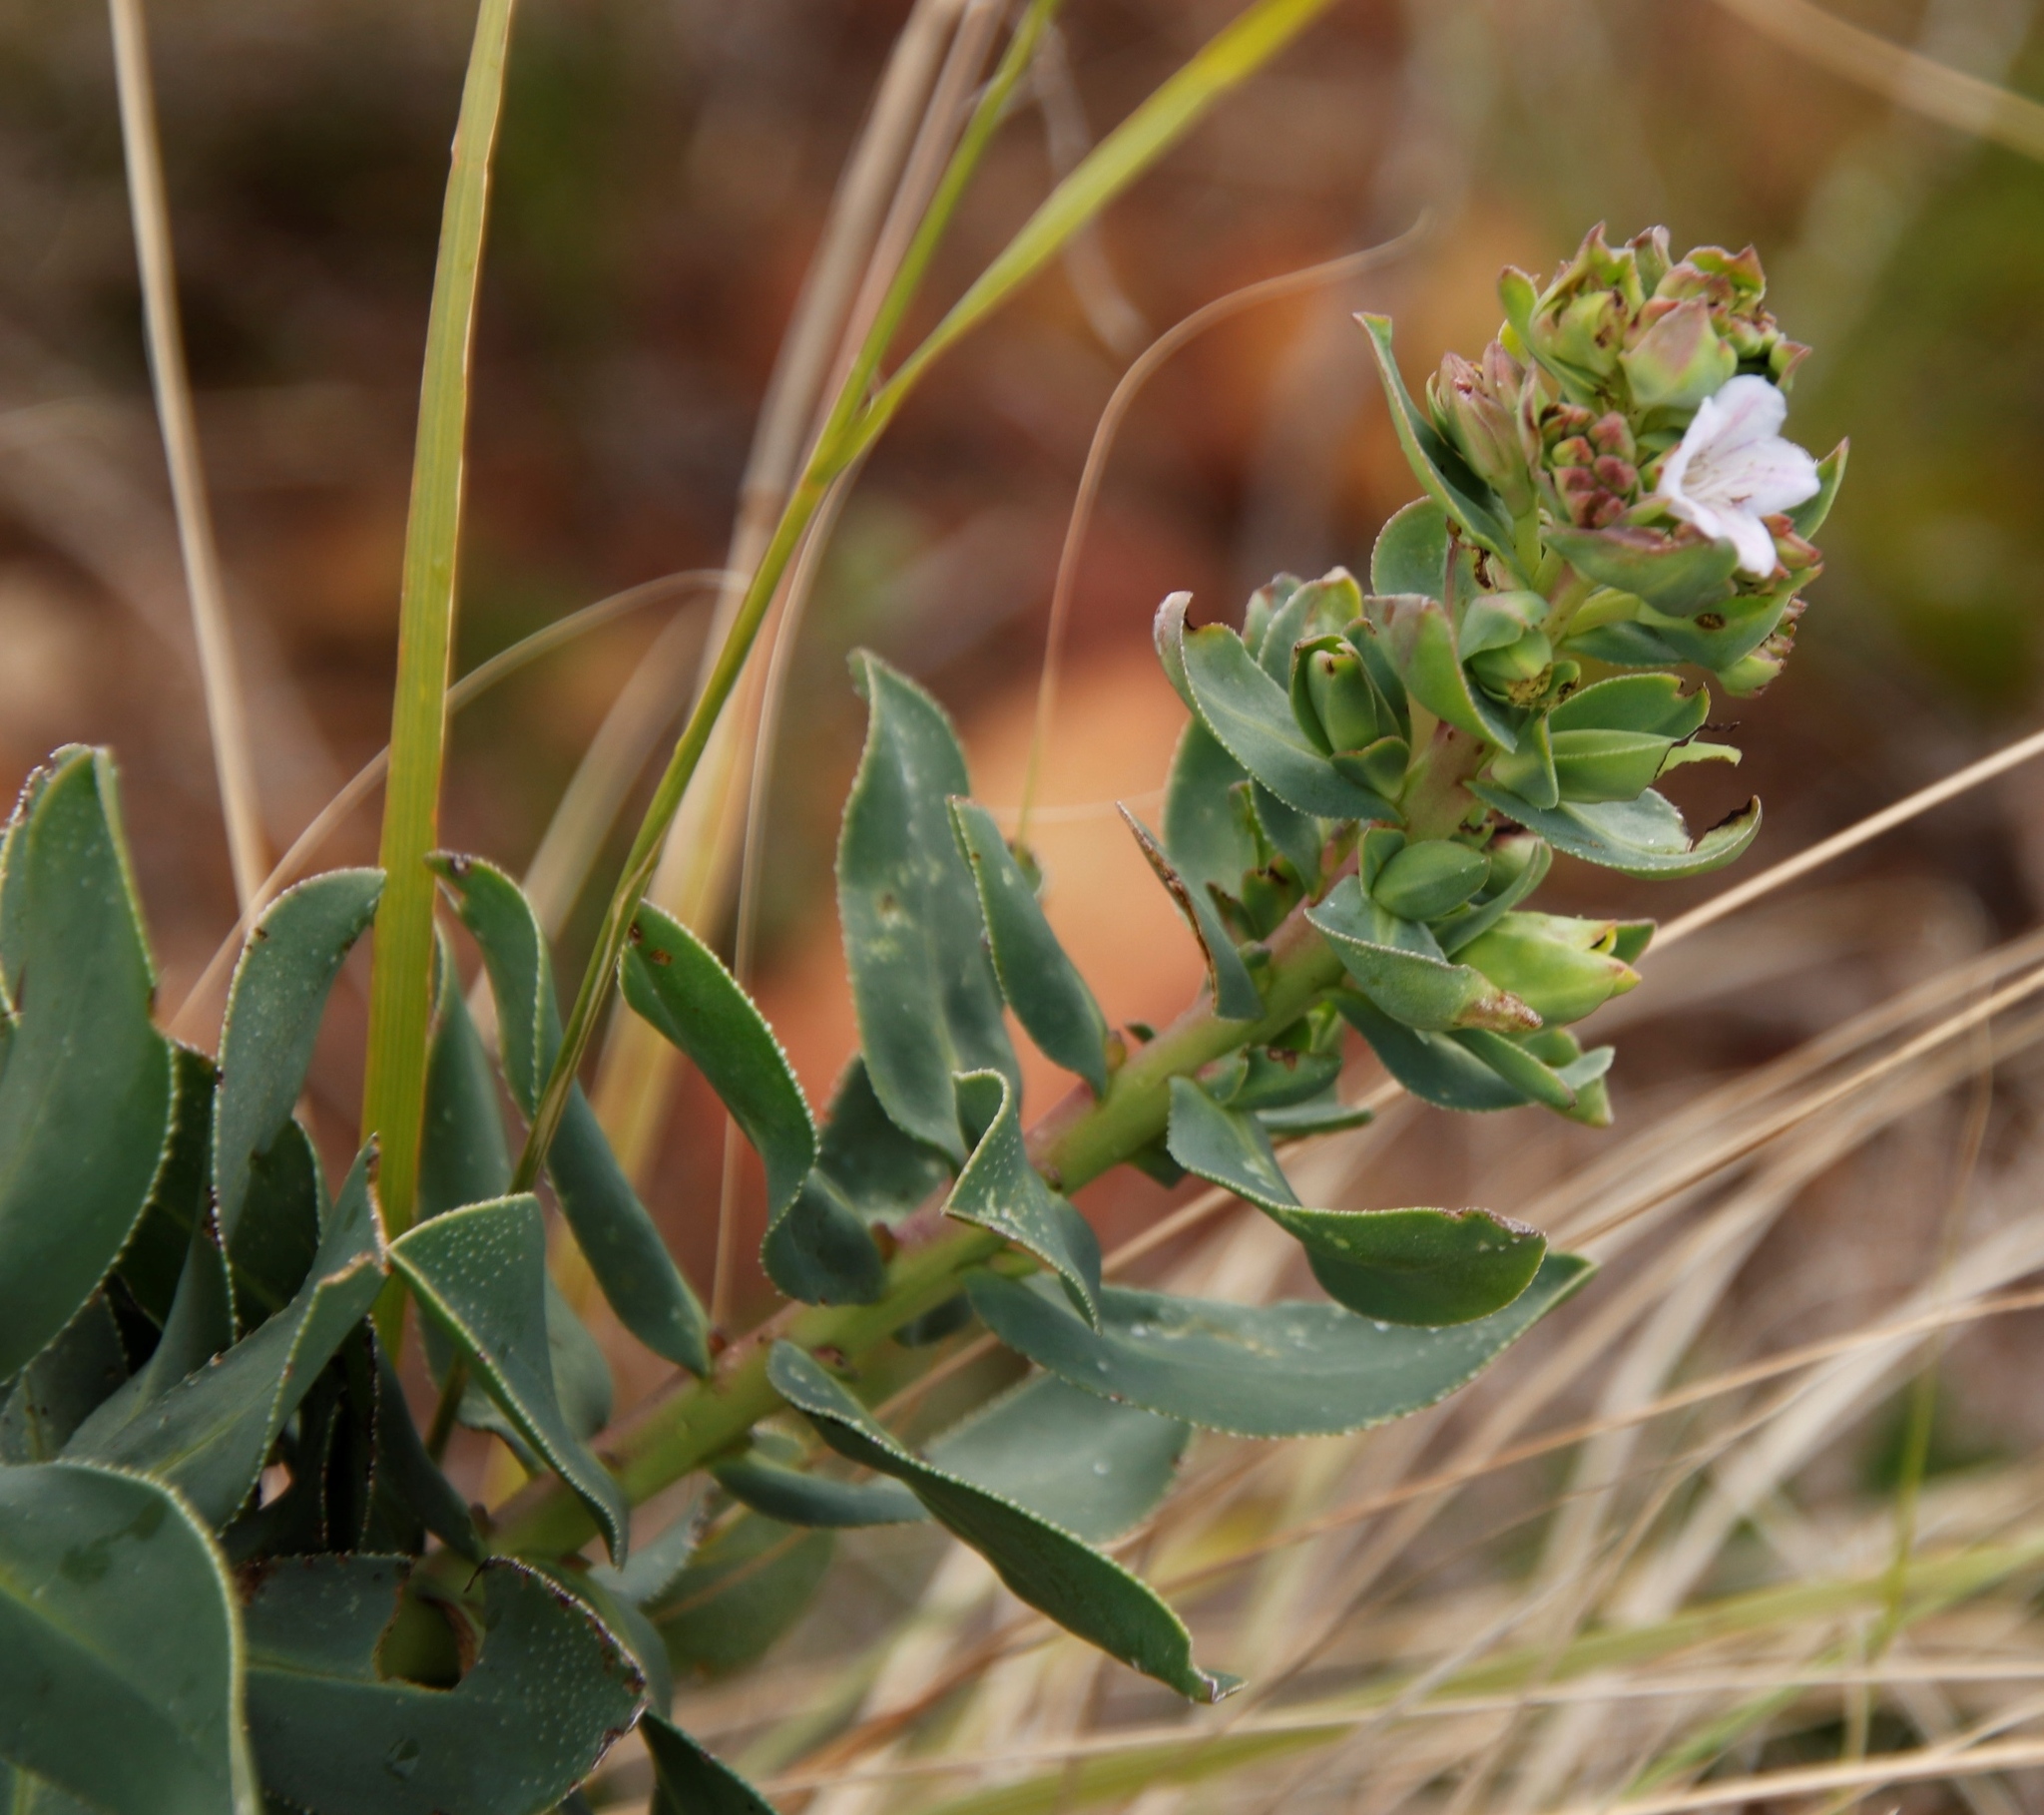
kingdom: Plantae
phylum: Tracheophyta
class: Magnoliopsida
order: Boraginales
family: Boraginaceae
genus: Lobostemon
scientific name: Lobostemon glaucophyllus
